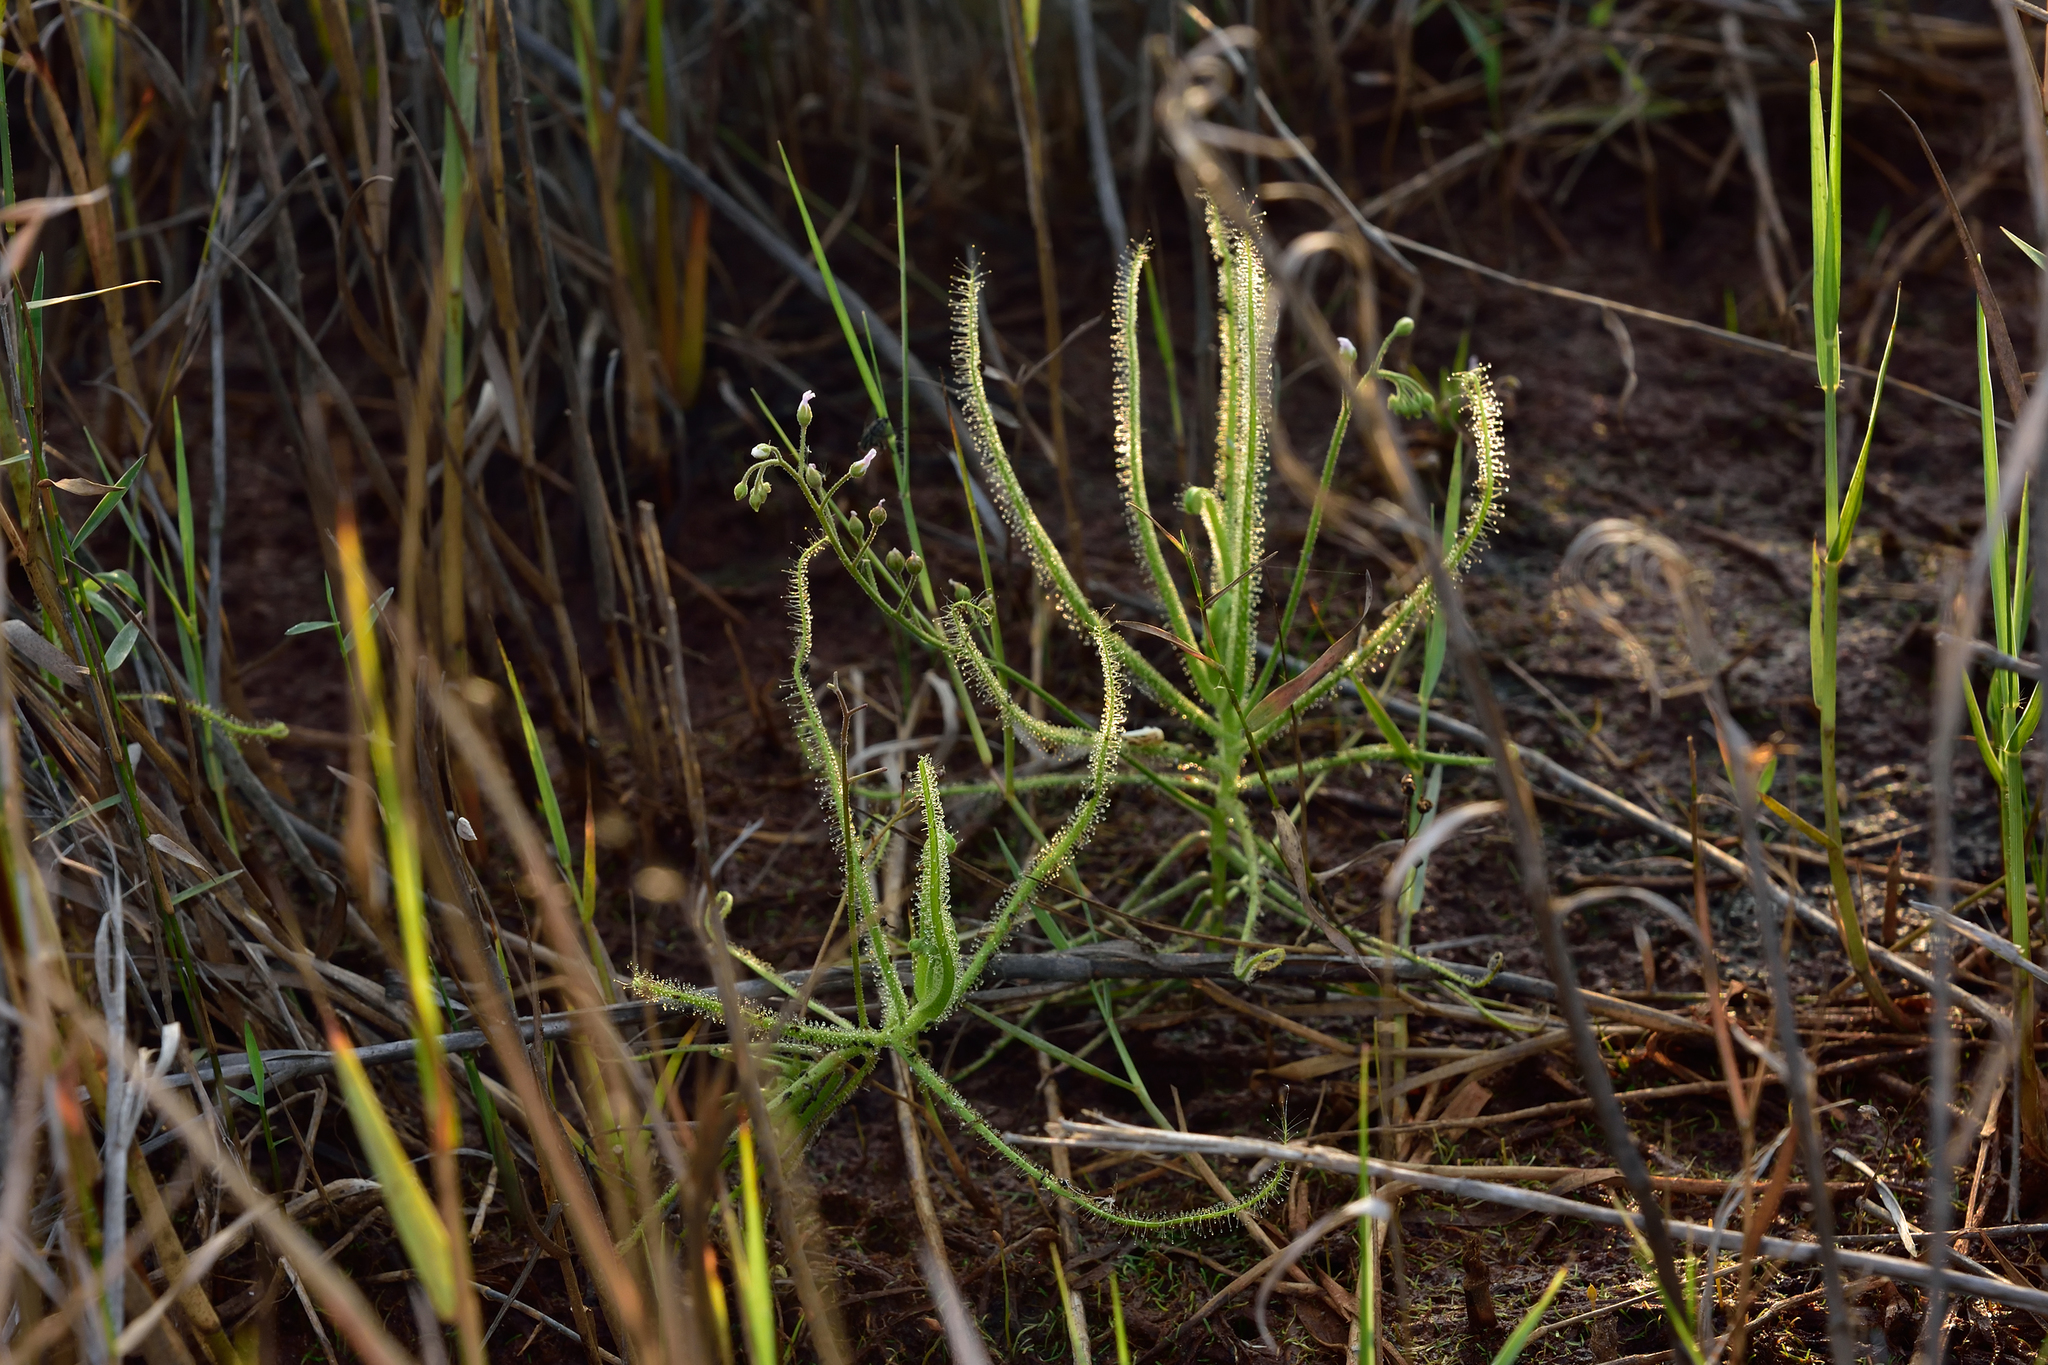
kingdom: Plantae
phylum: Tracheophyta
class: Magnoliopsida
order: Caryophyllales
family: Droseraceae
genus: Drosera
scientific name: Drosera finlaysoniana
